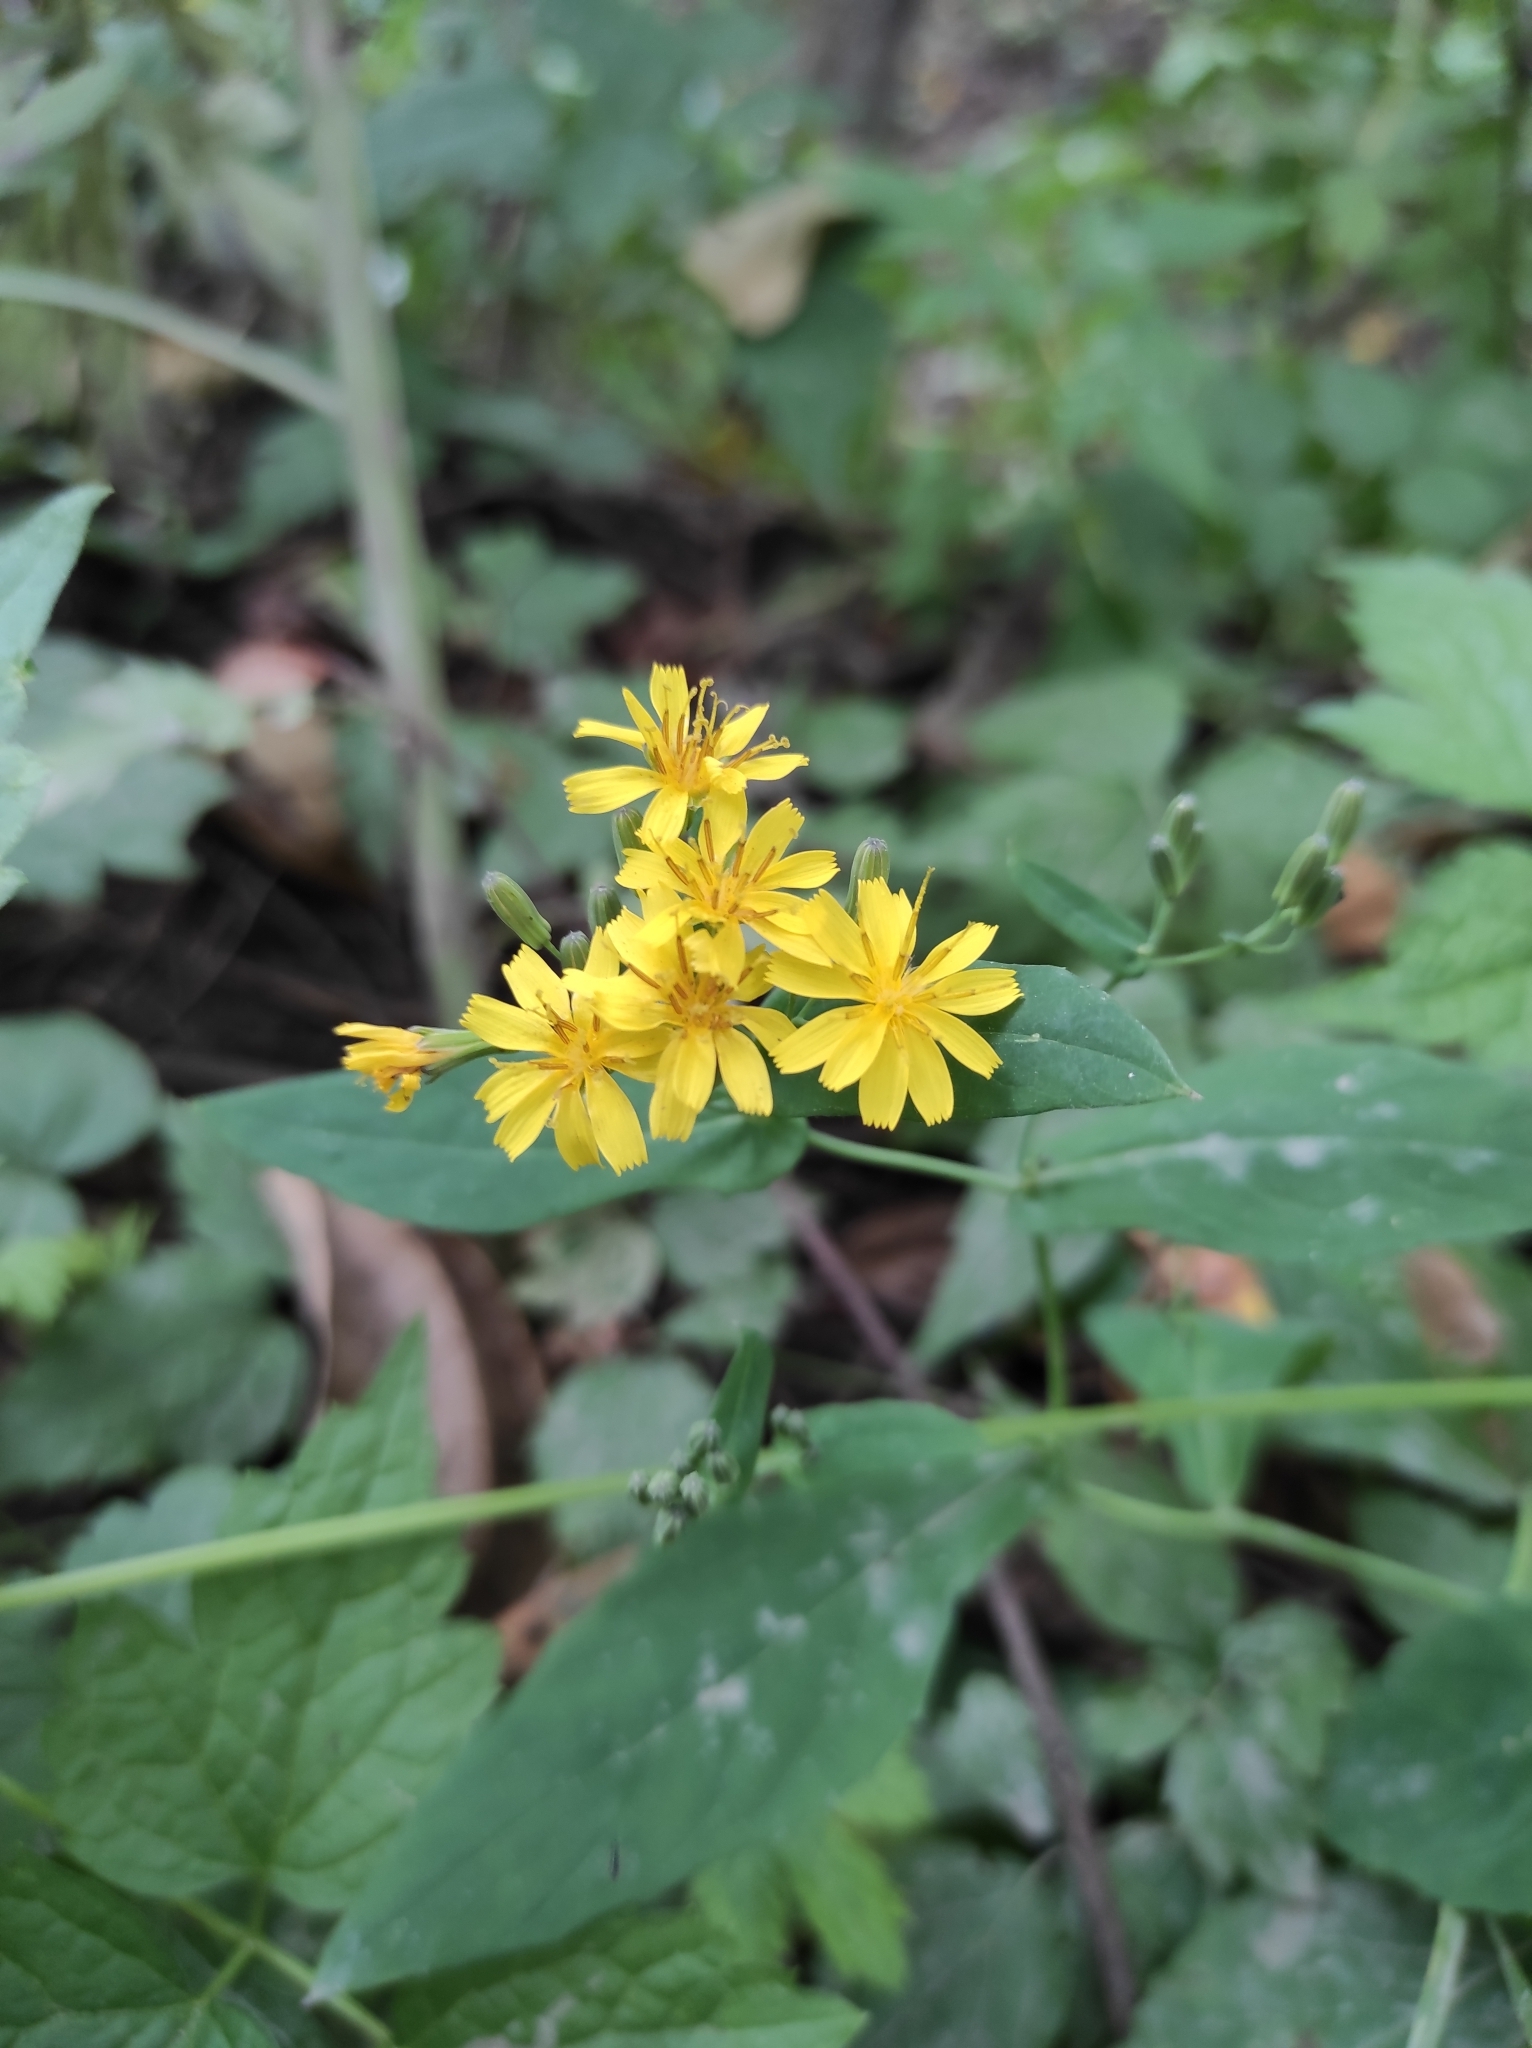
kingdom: Plantae
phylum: Tracheophyta
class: Magnoliopsida
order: Asterales
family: Asteraceae
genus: Crepidiastrum
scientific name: Crepidiastrum denticulatum
